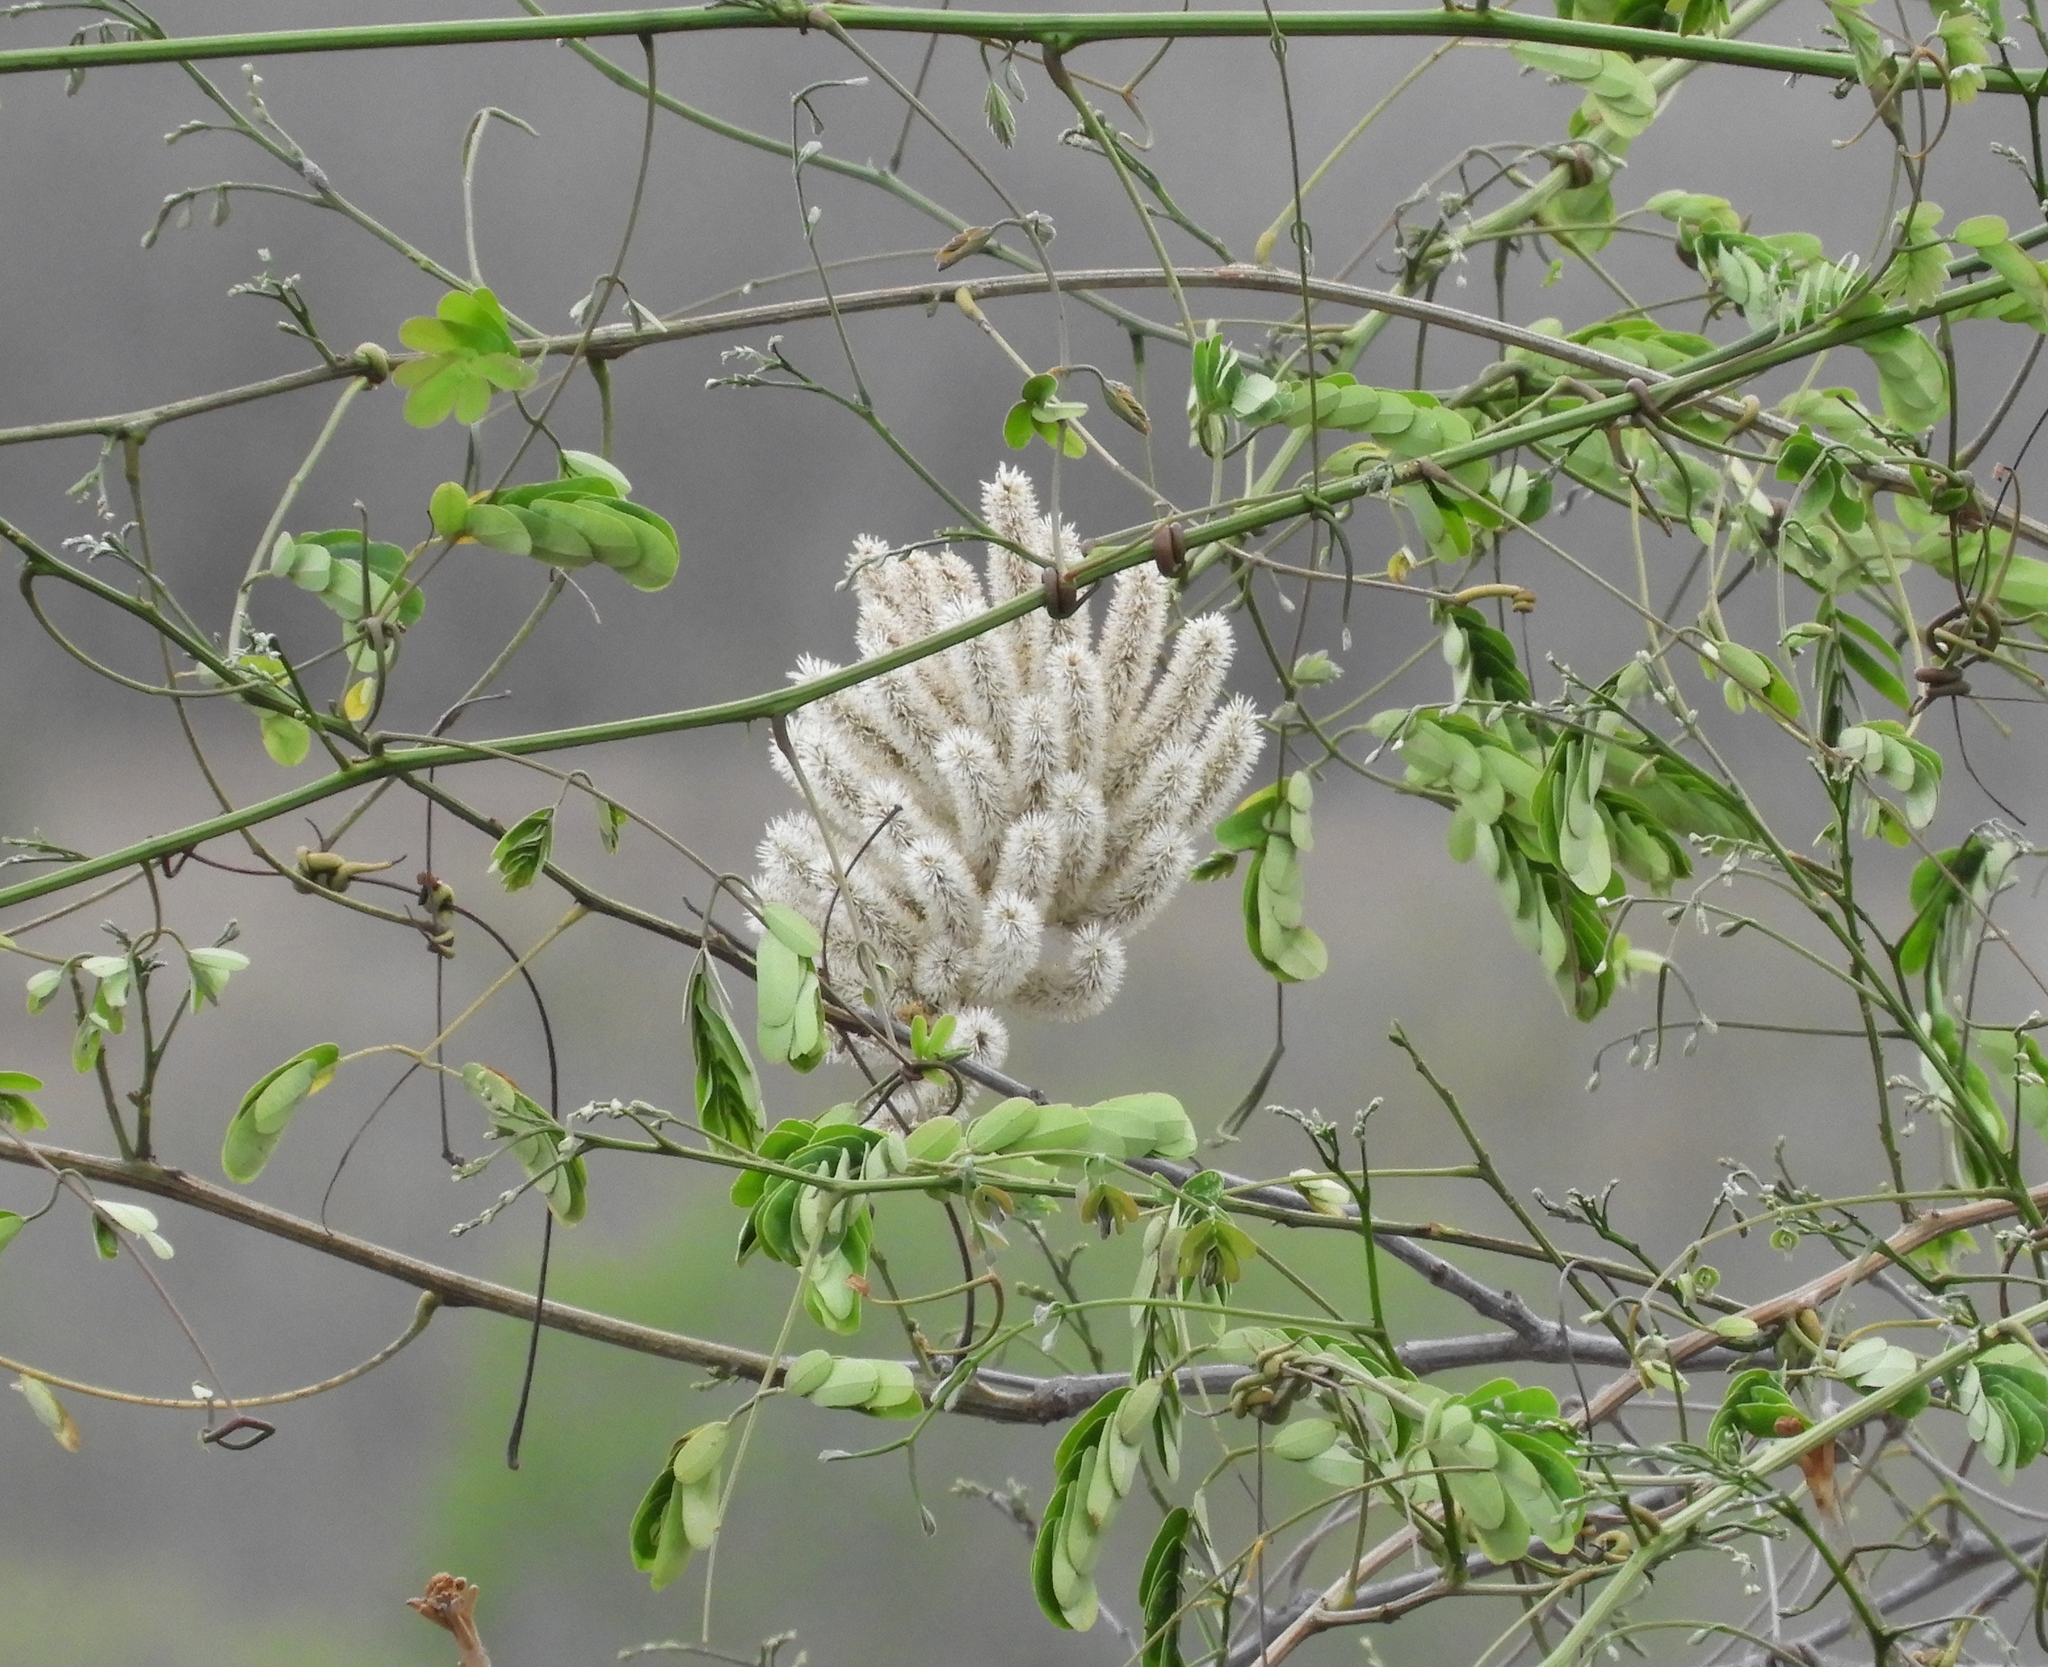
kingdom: Plantae
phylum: Tracheophyta
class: Magnoliopsida
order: Fabales
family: Fabaceae
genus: Entada
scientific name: Entada polystachya
